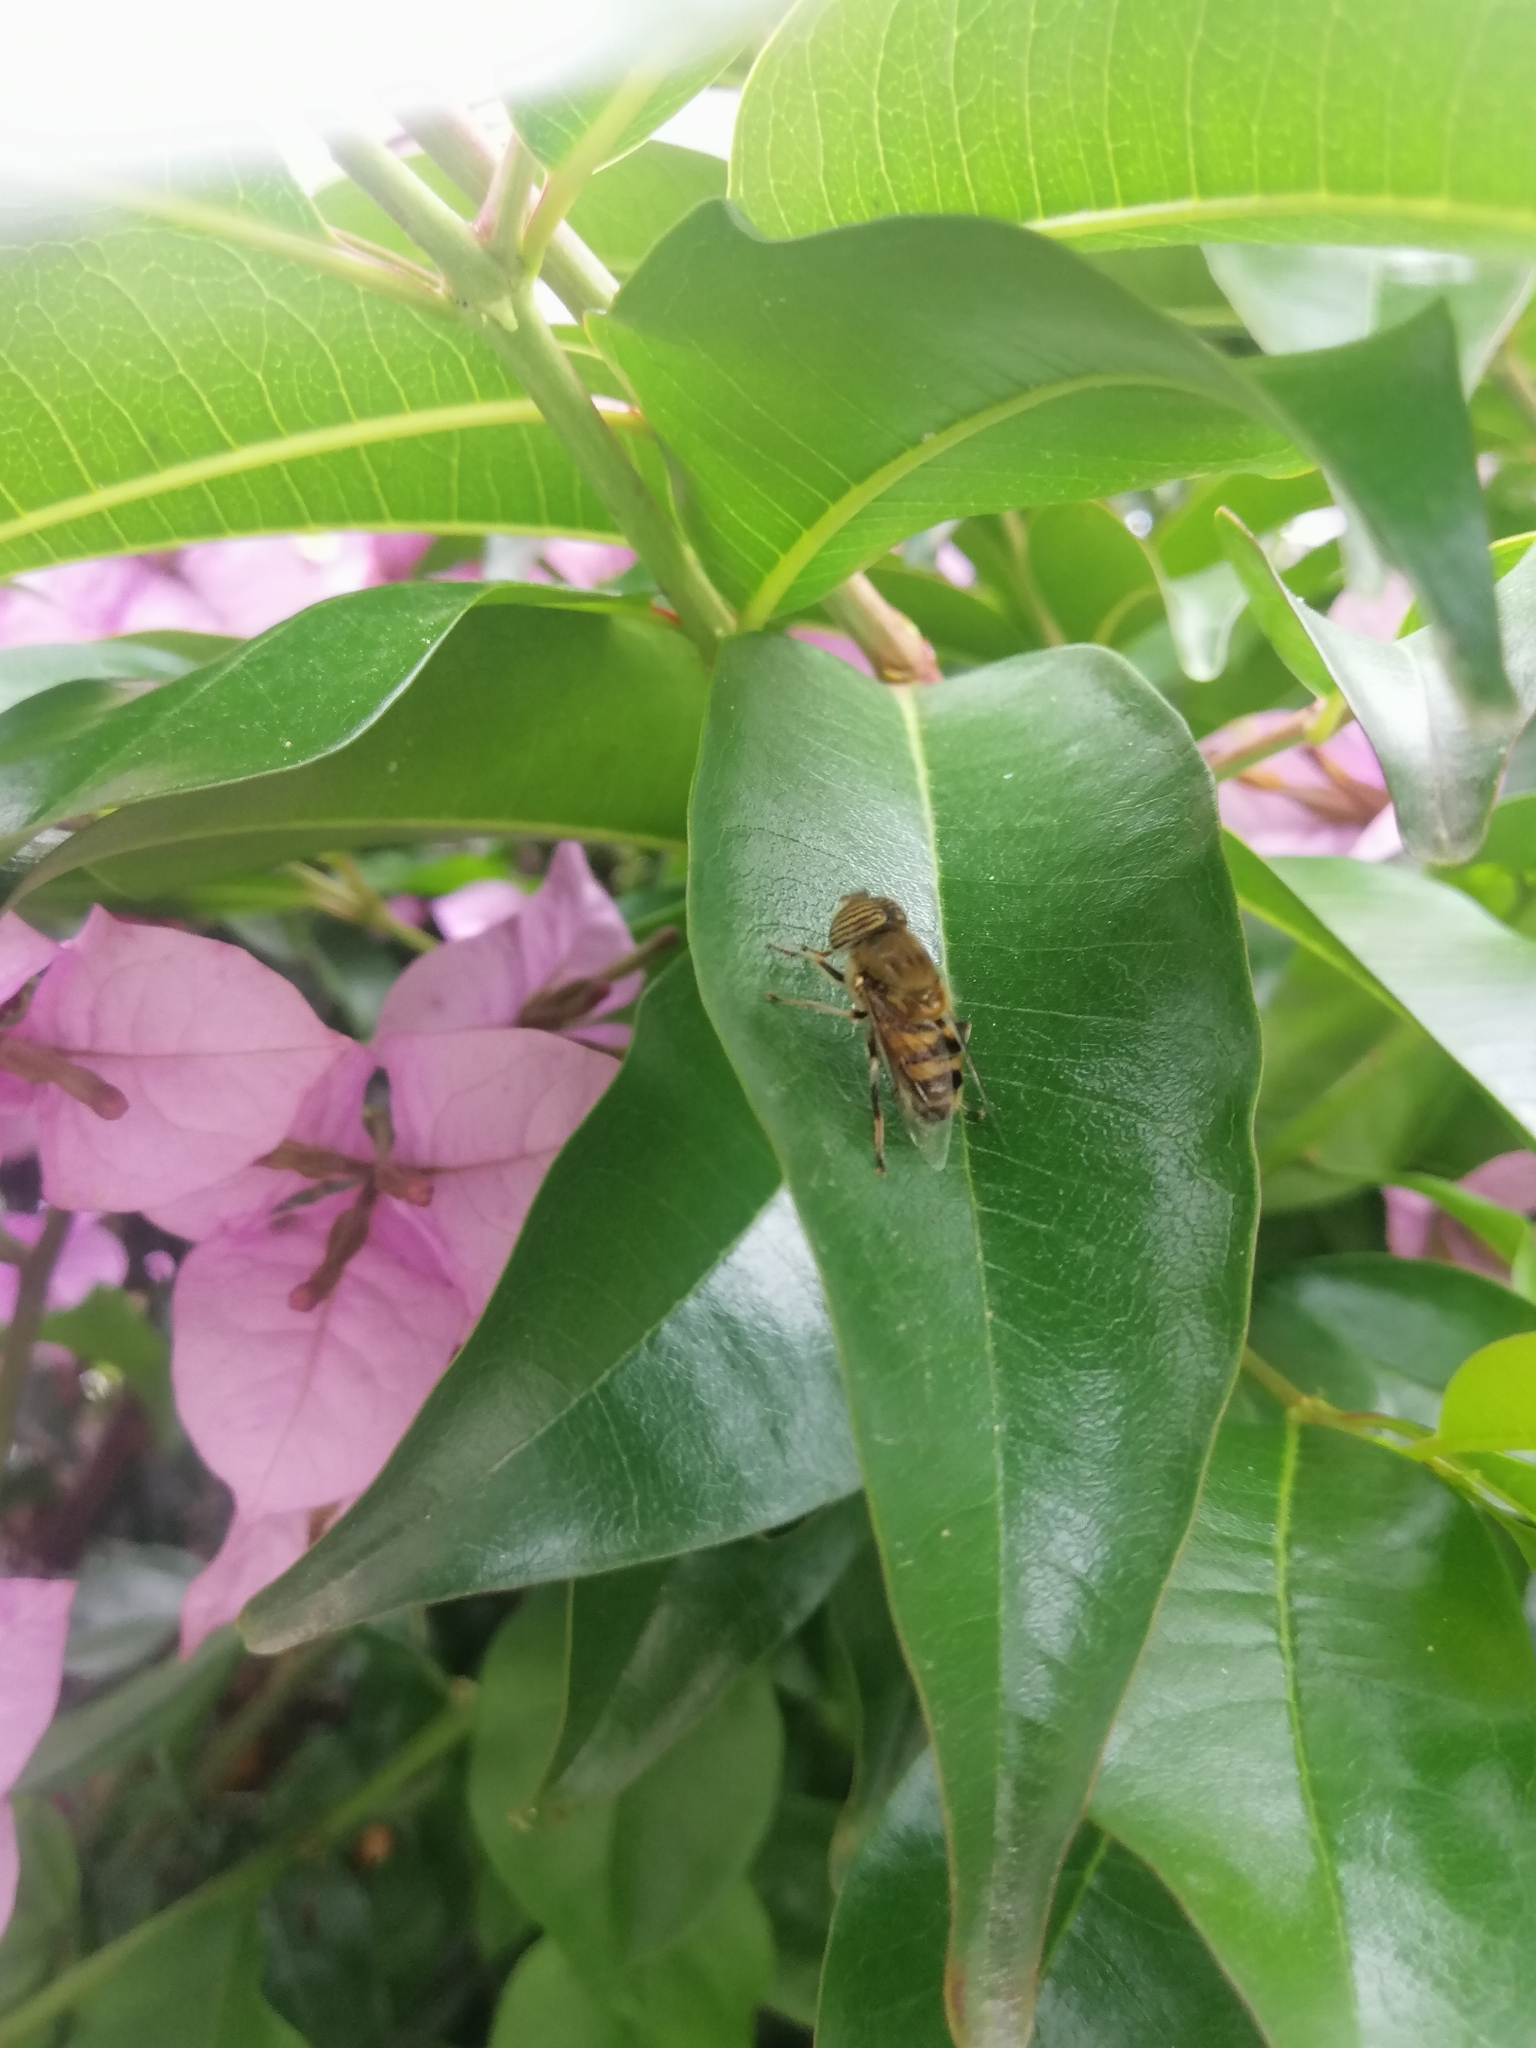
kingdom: Animalia
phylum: Arthropoda
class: Insecta
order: Diptera
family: Syrphidae
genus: Eristalinus
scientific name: Eristalinus taeniops
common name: Syrphid fly
